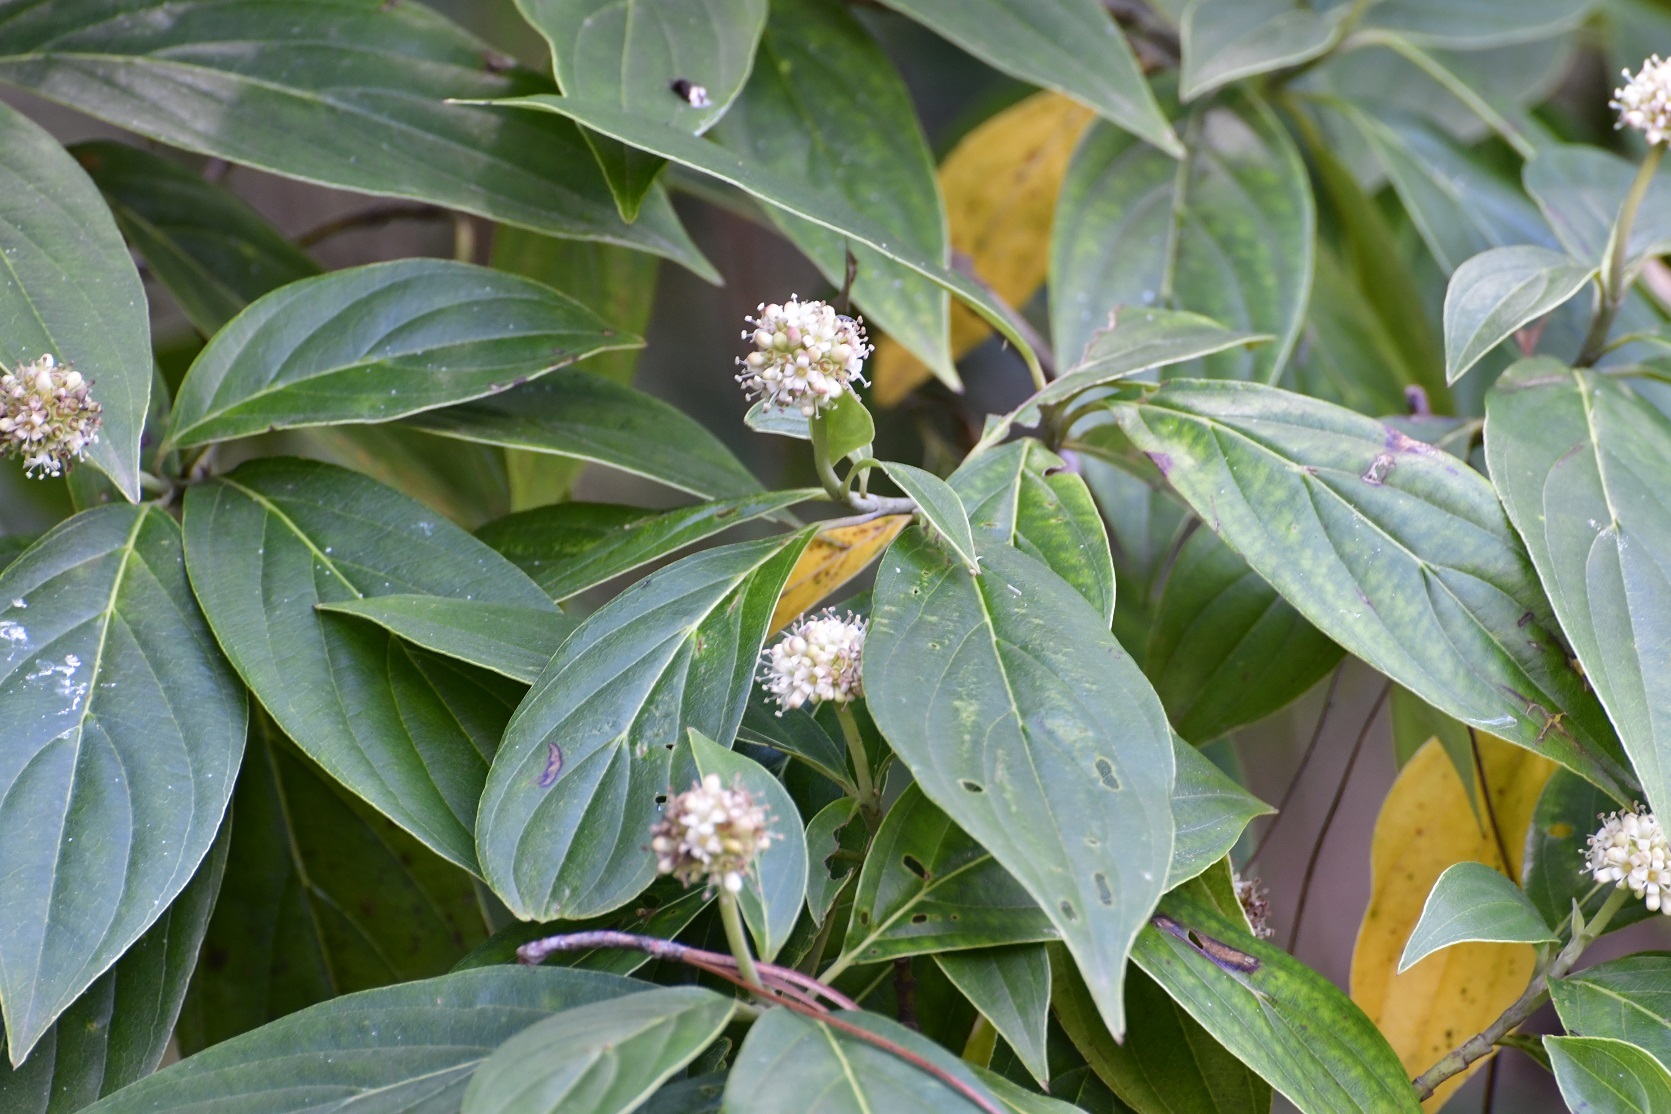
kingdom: Plantae
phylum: Tracheophyta
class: Magnoliopsida
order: Cornales
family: Cornaceae
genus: Cornus
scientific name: Cornus disciflora
